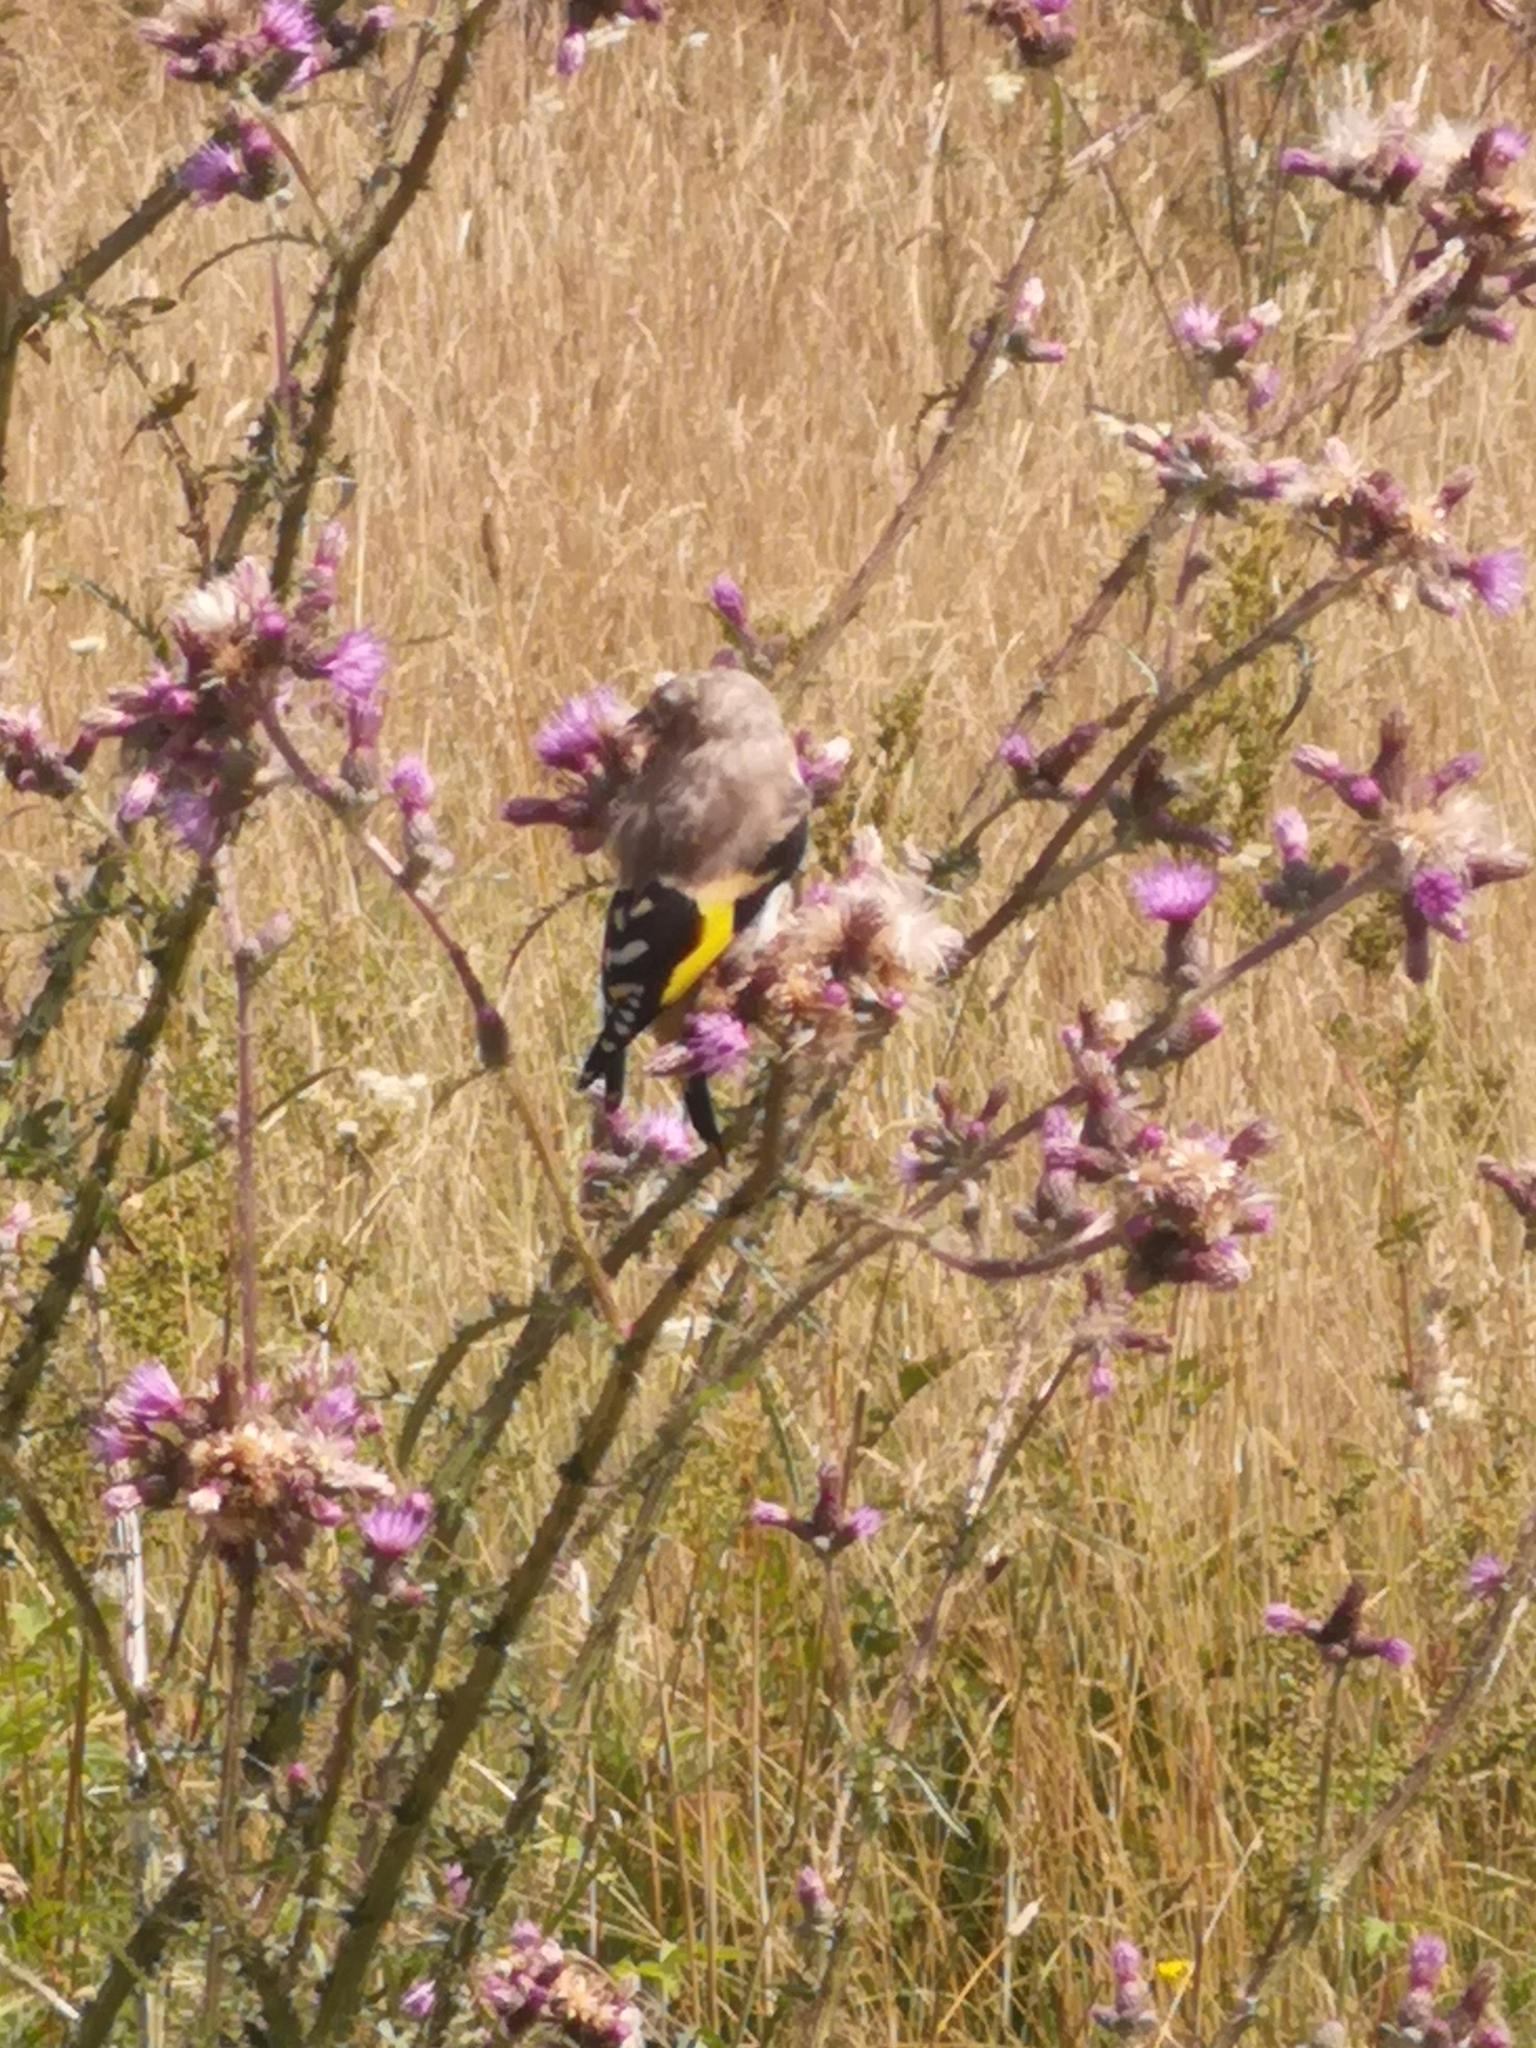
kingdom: Animalia
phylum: Chordata
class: Aves
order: Passeriformes
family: Fringillidae
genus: Carduelis
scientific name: Carduelis carduelis
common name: European goldfinch
